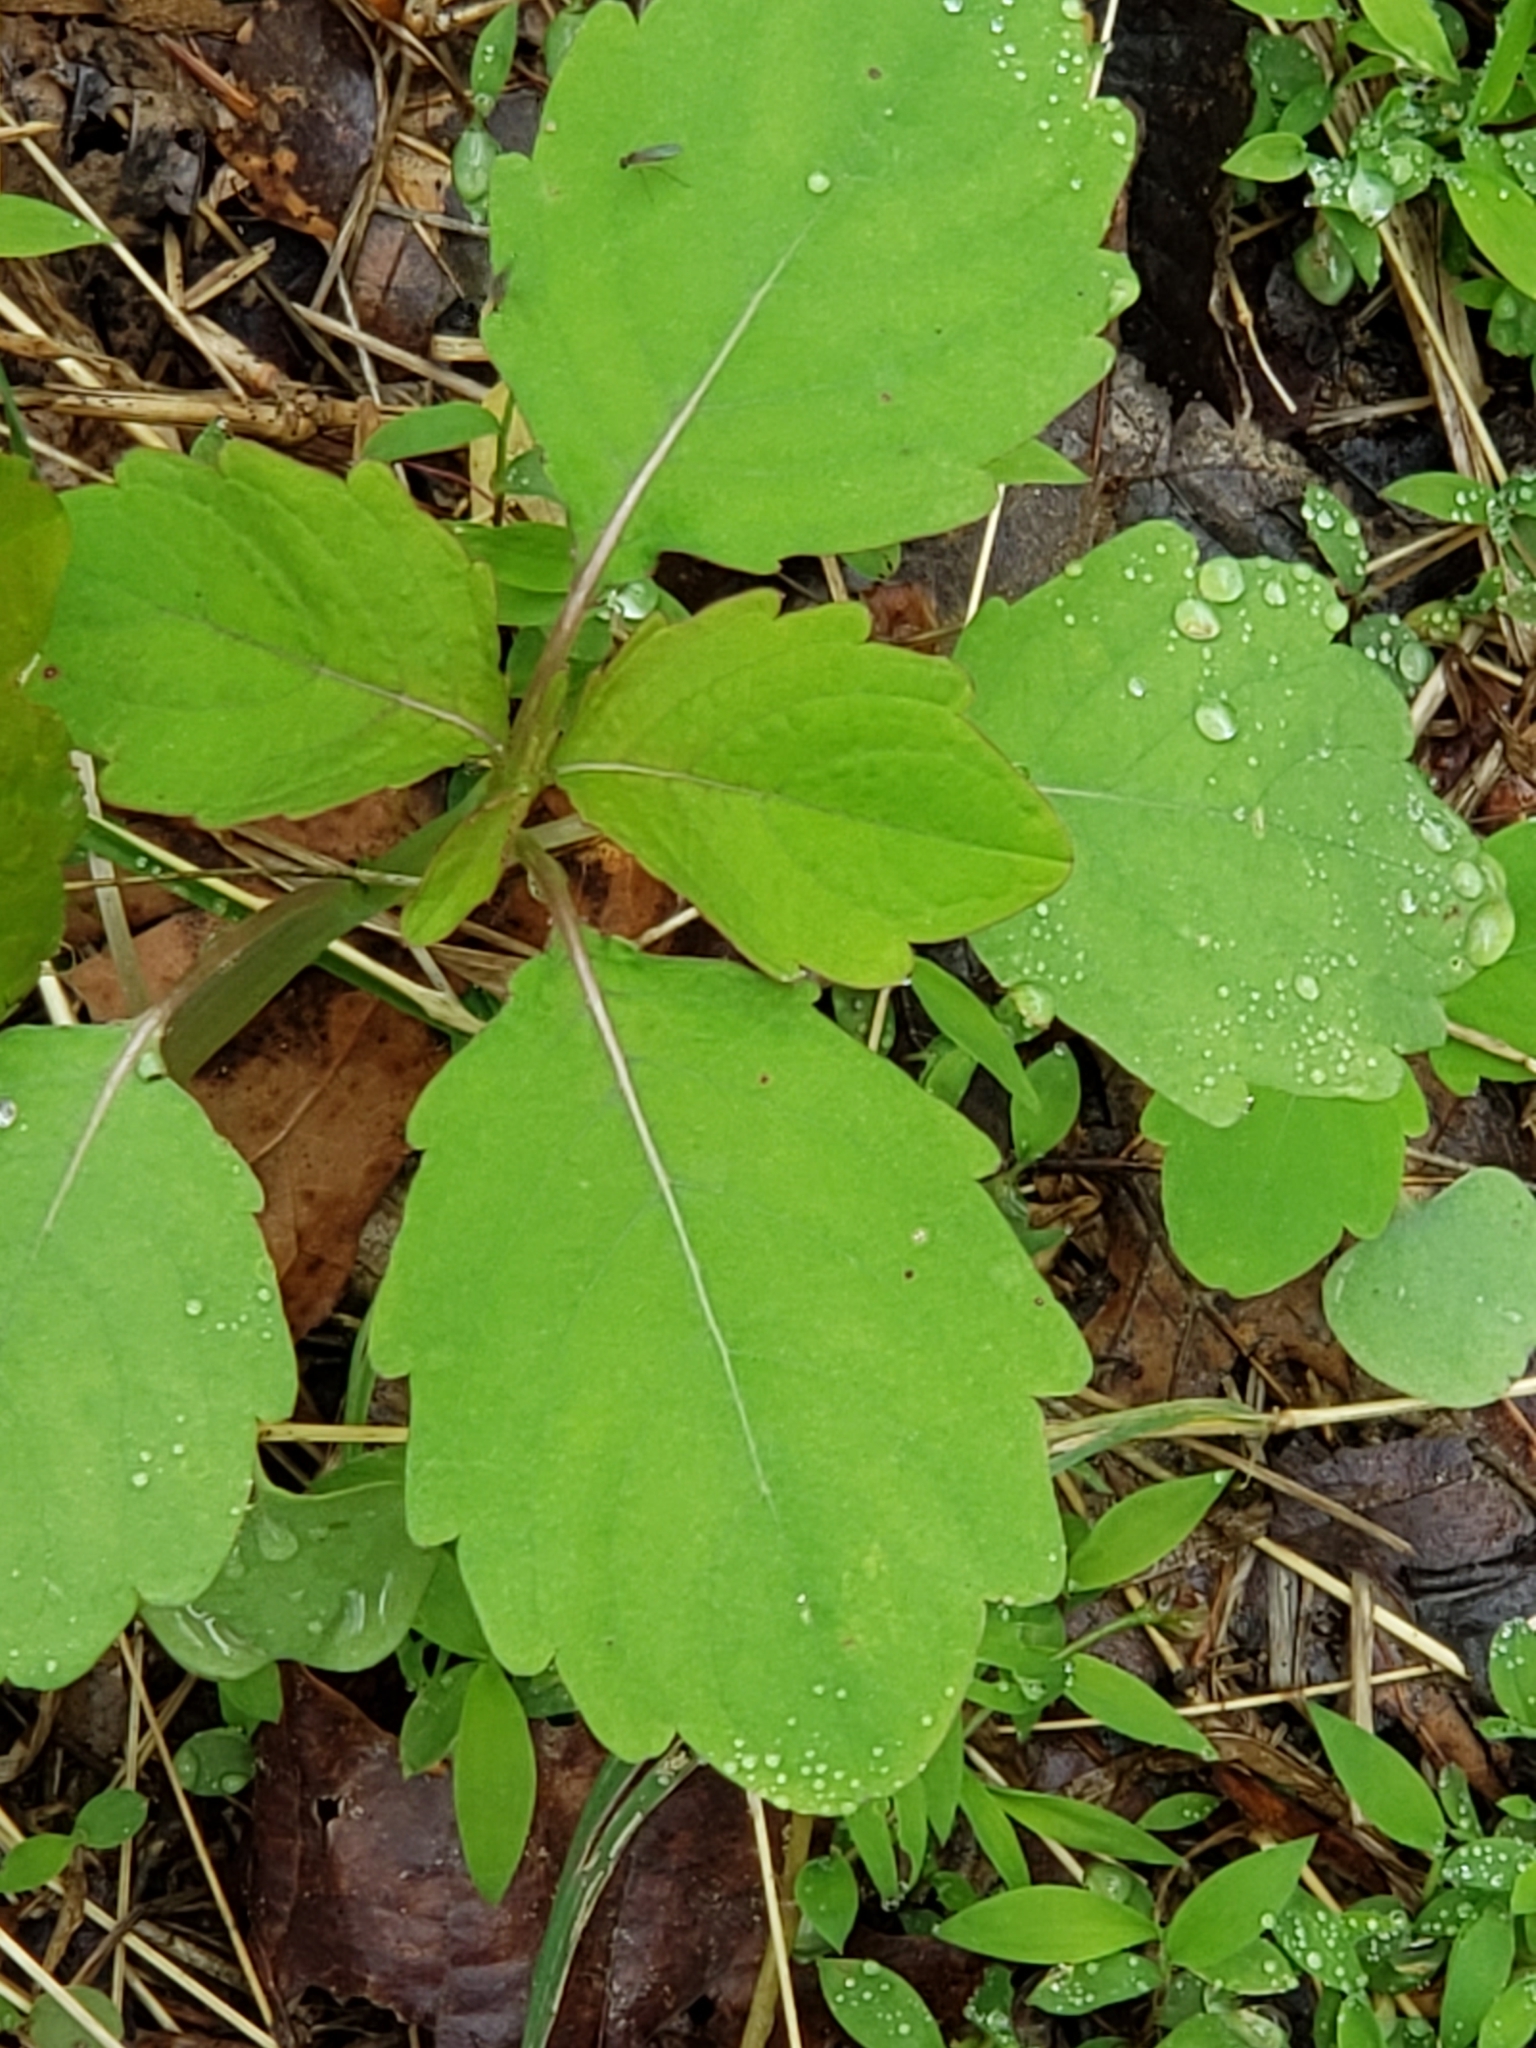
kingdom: Plantae
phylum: Tracheophyta
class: Magnoliopsida
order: Ericales
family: Balsaminaceae
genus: Impatiens
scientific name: Impatiens capensis
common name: Orange balsam
